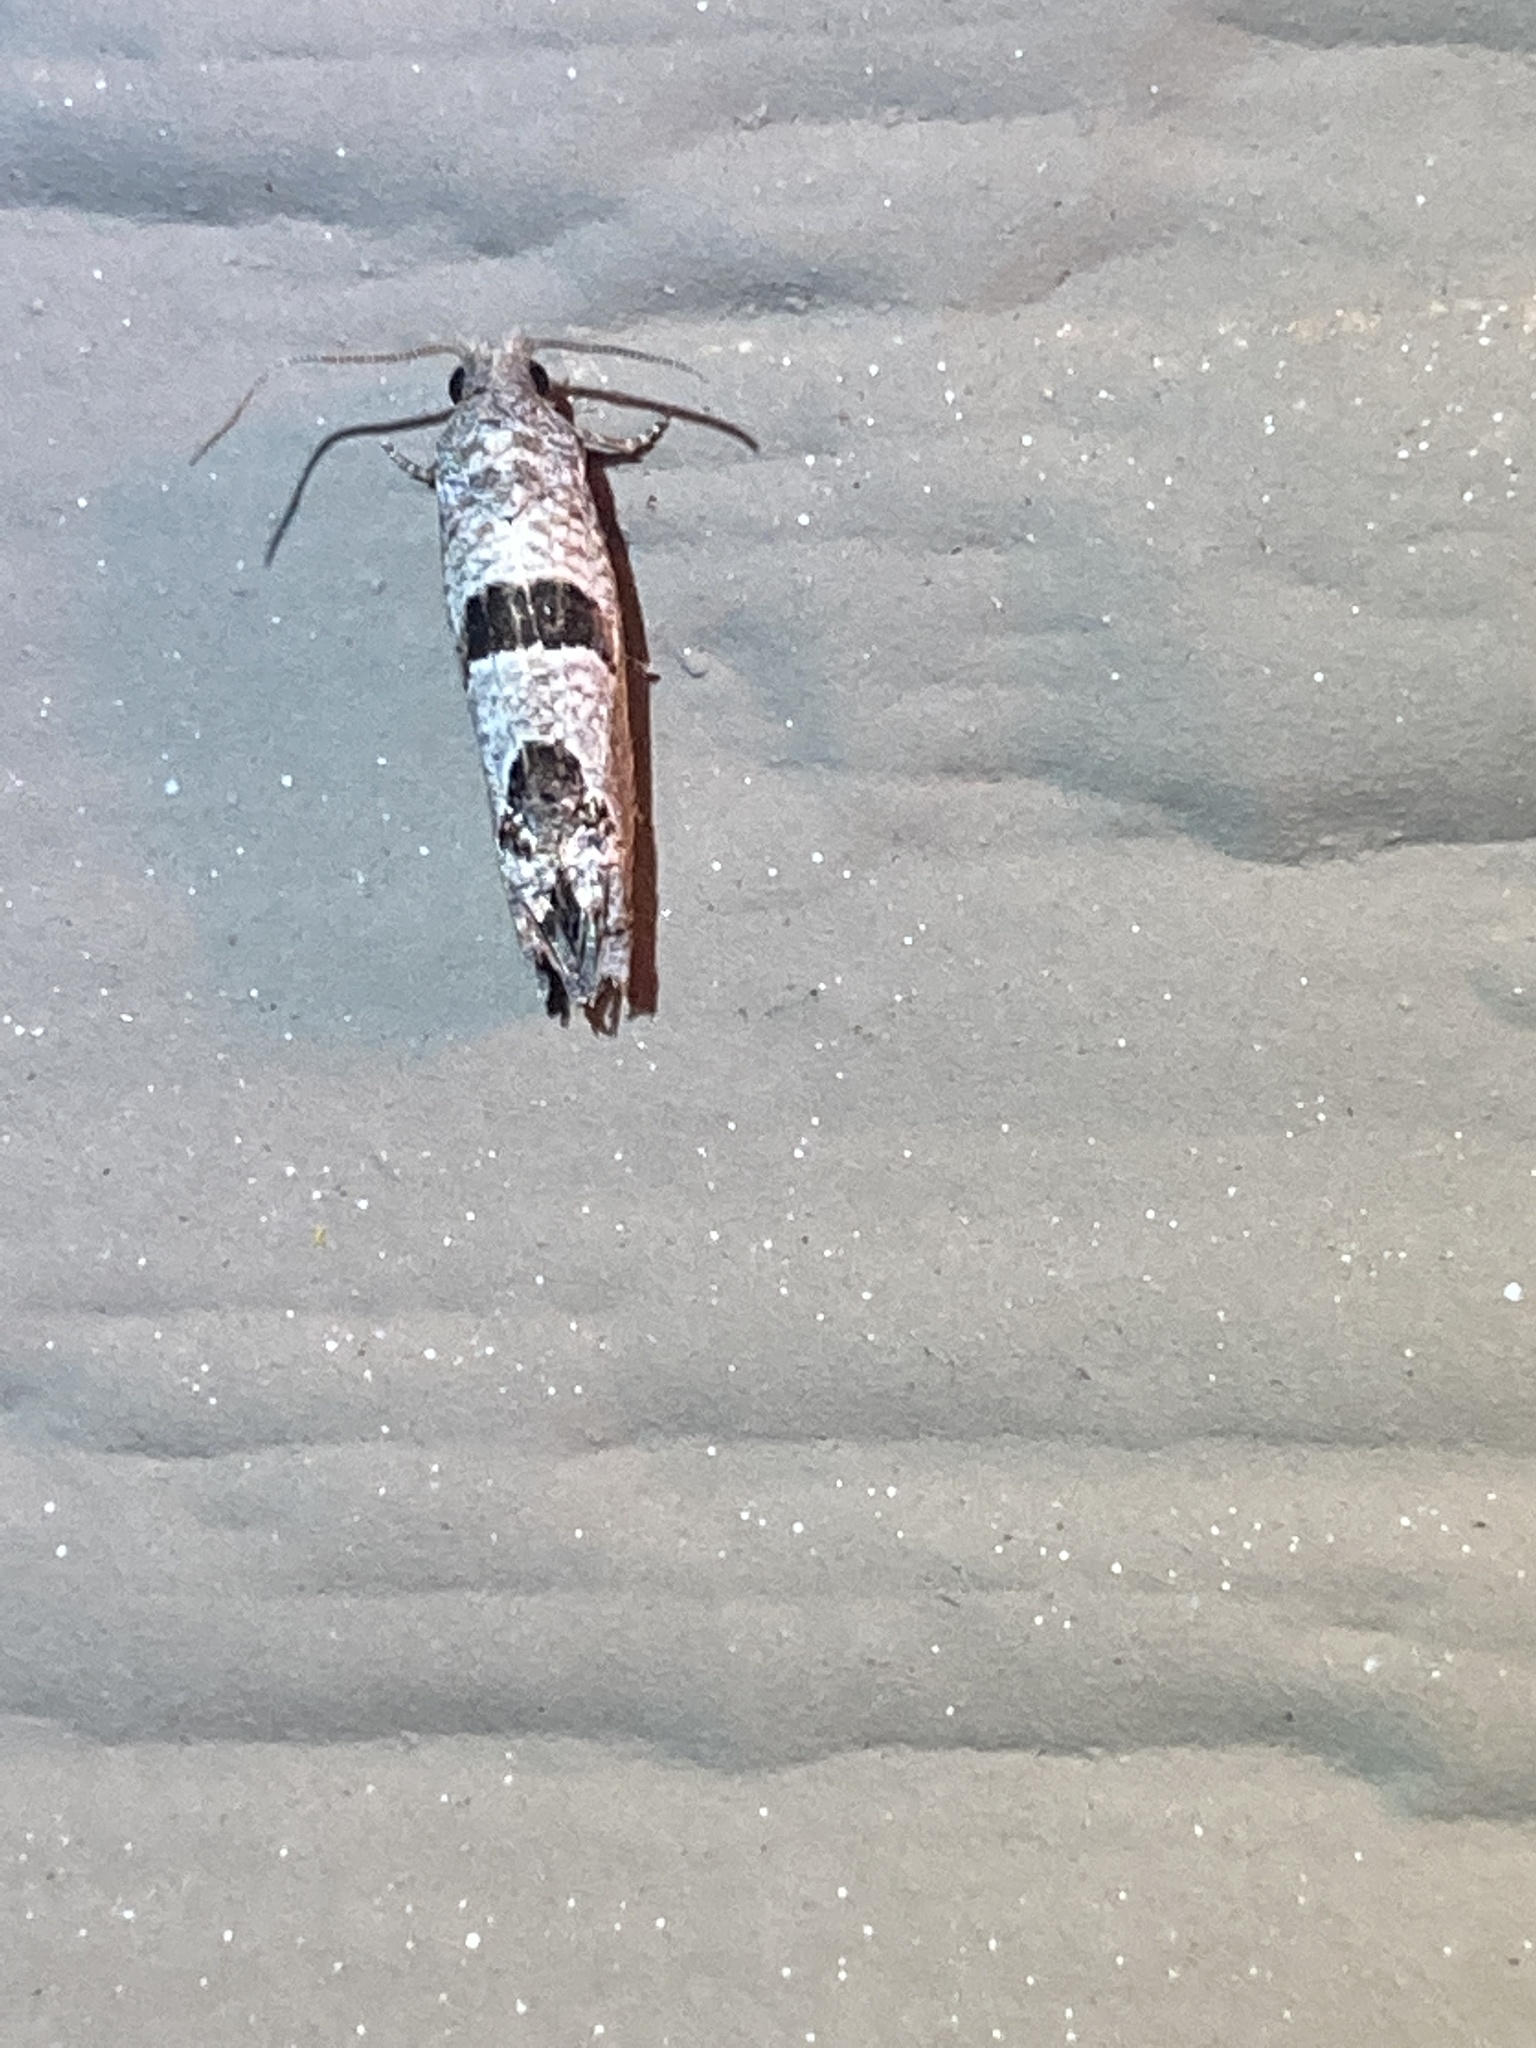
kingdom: Animalia
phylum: Arthropoda
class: Insecta
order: Lepidoptera
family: Tortricidae
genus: Suleima
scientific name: Suleima helianthana
